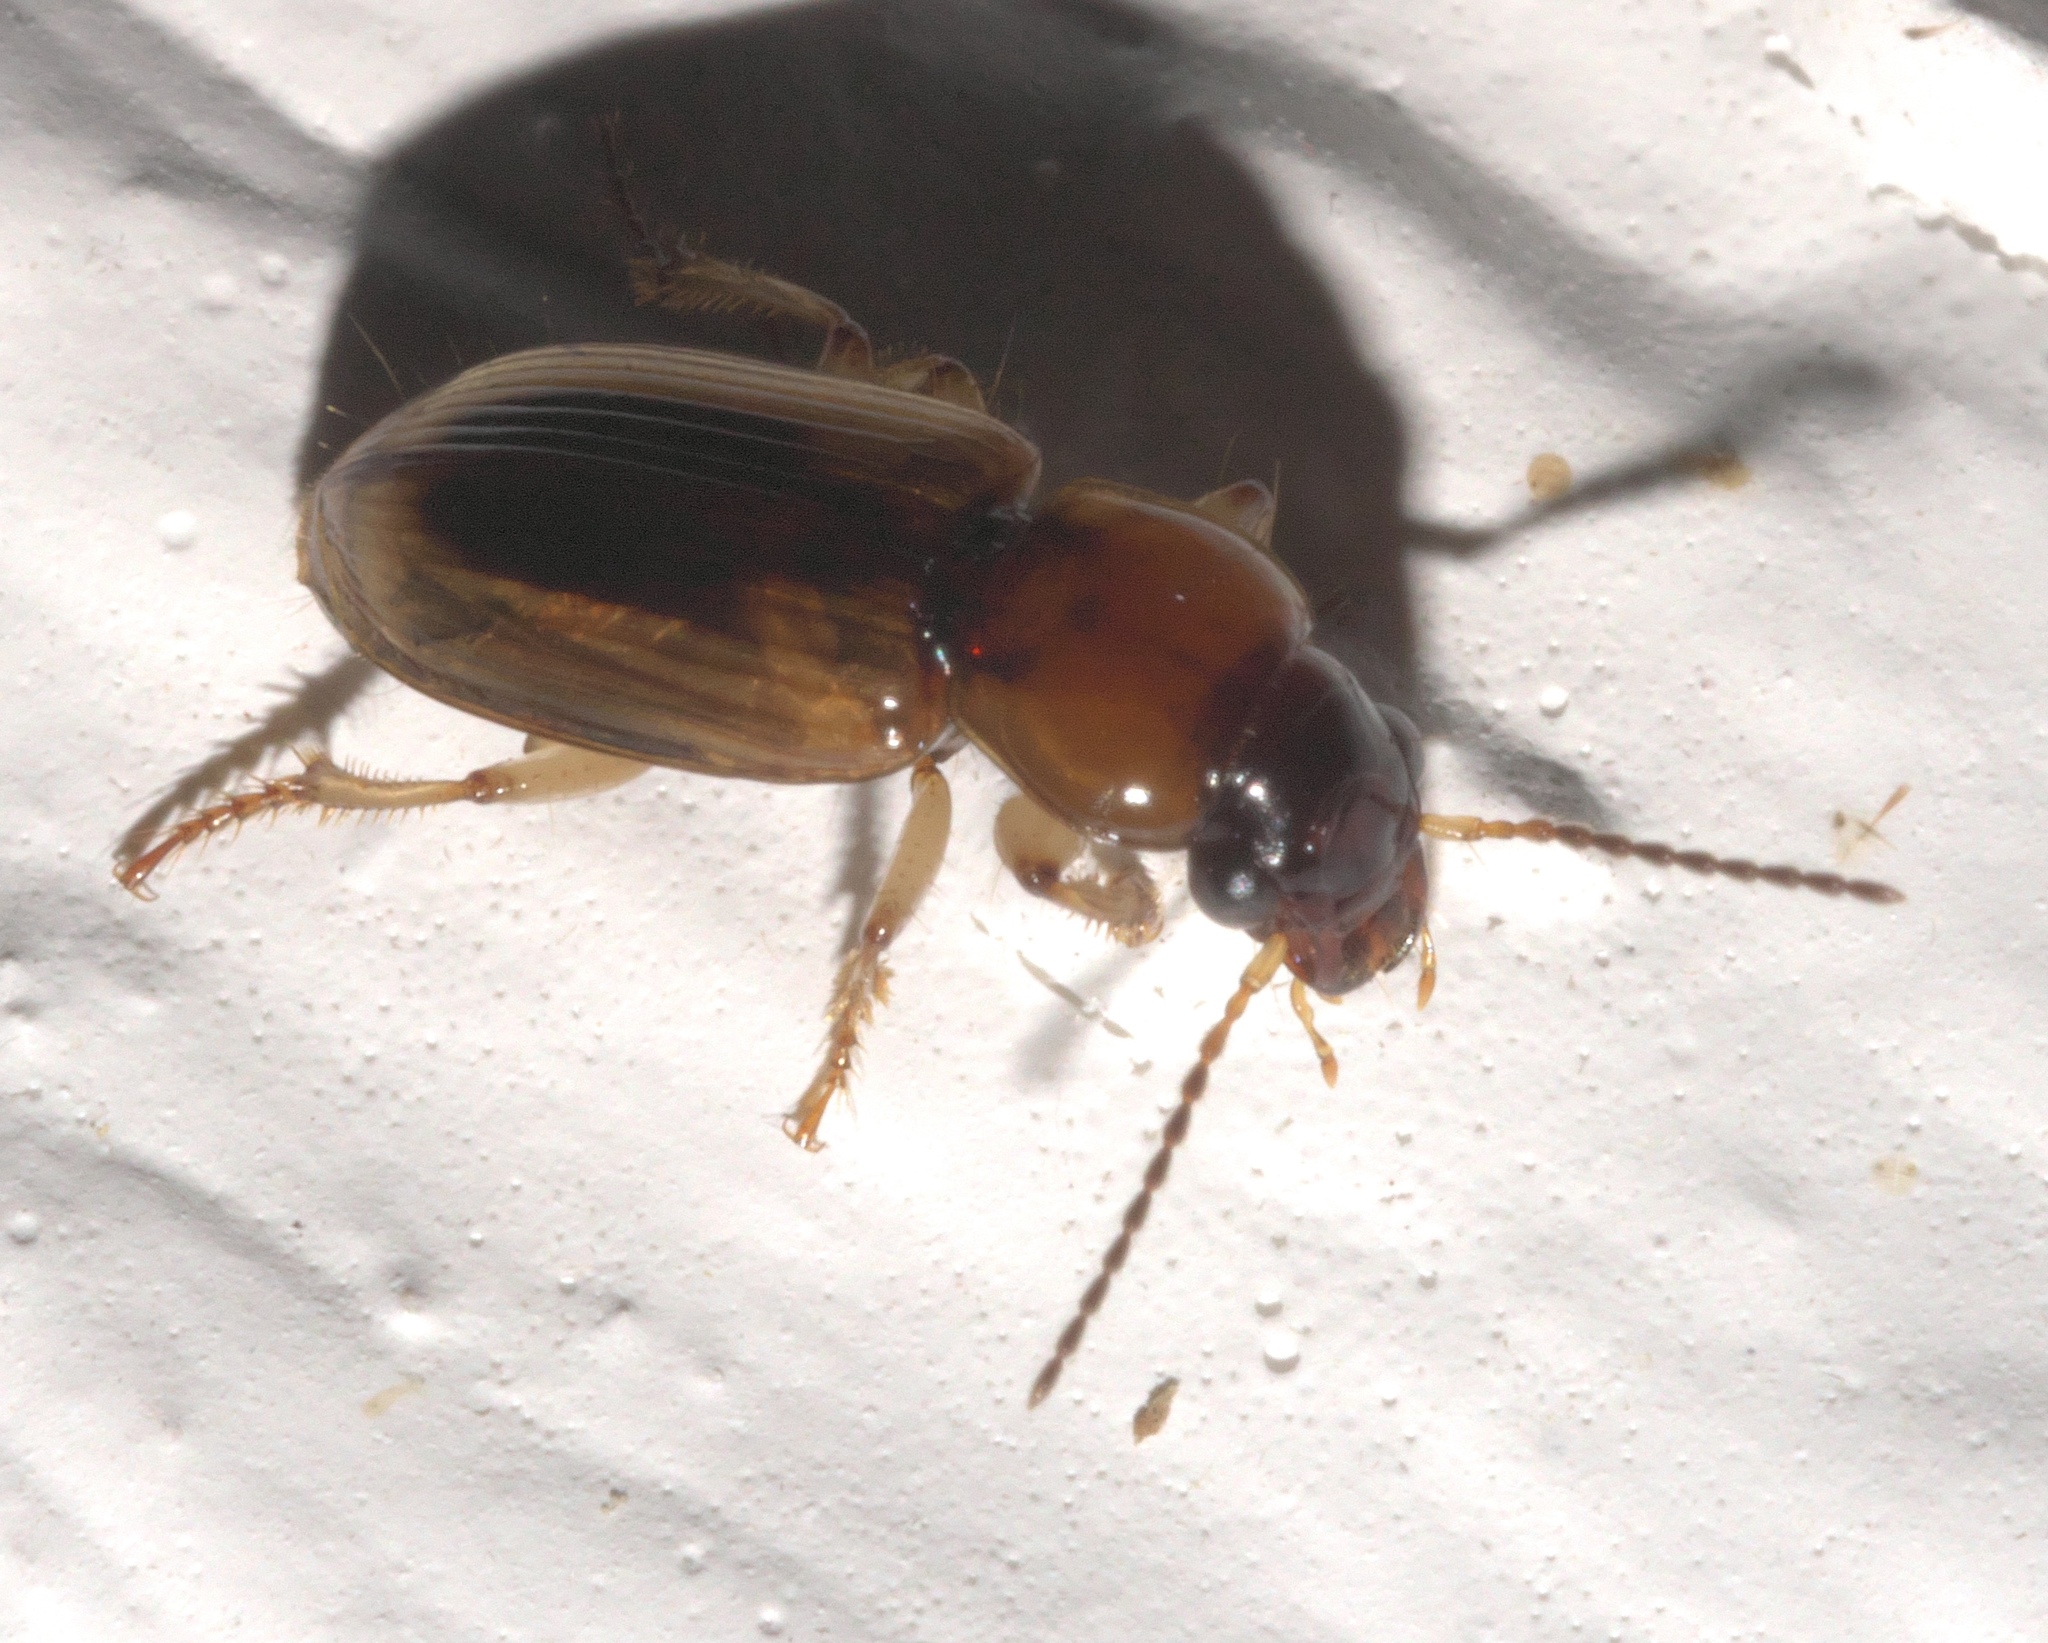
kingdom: Animalia
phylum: Arthropoda
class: Insecta
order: Coleoptera
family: Carabidae
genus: Stenolophus
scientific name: Stenolophus dissimilis
